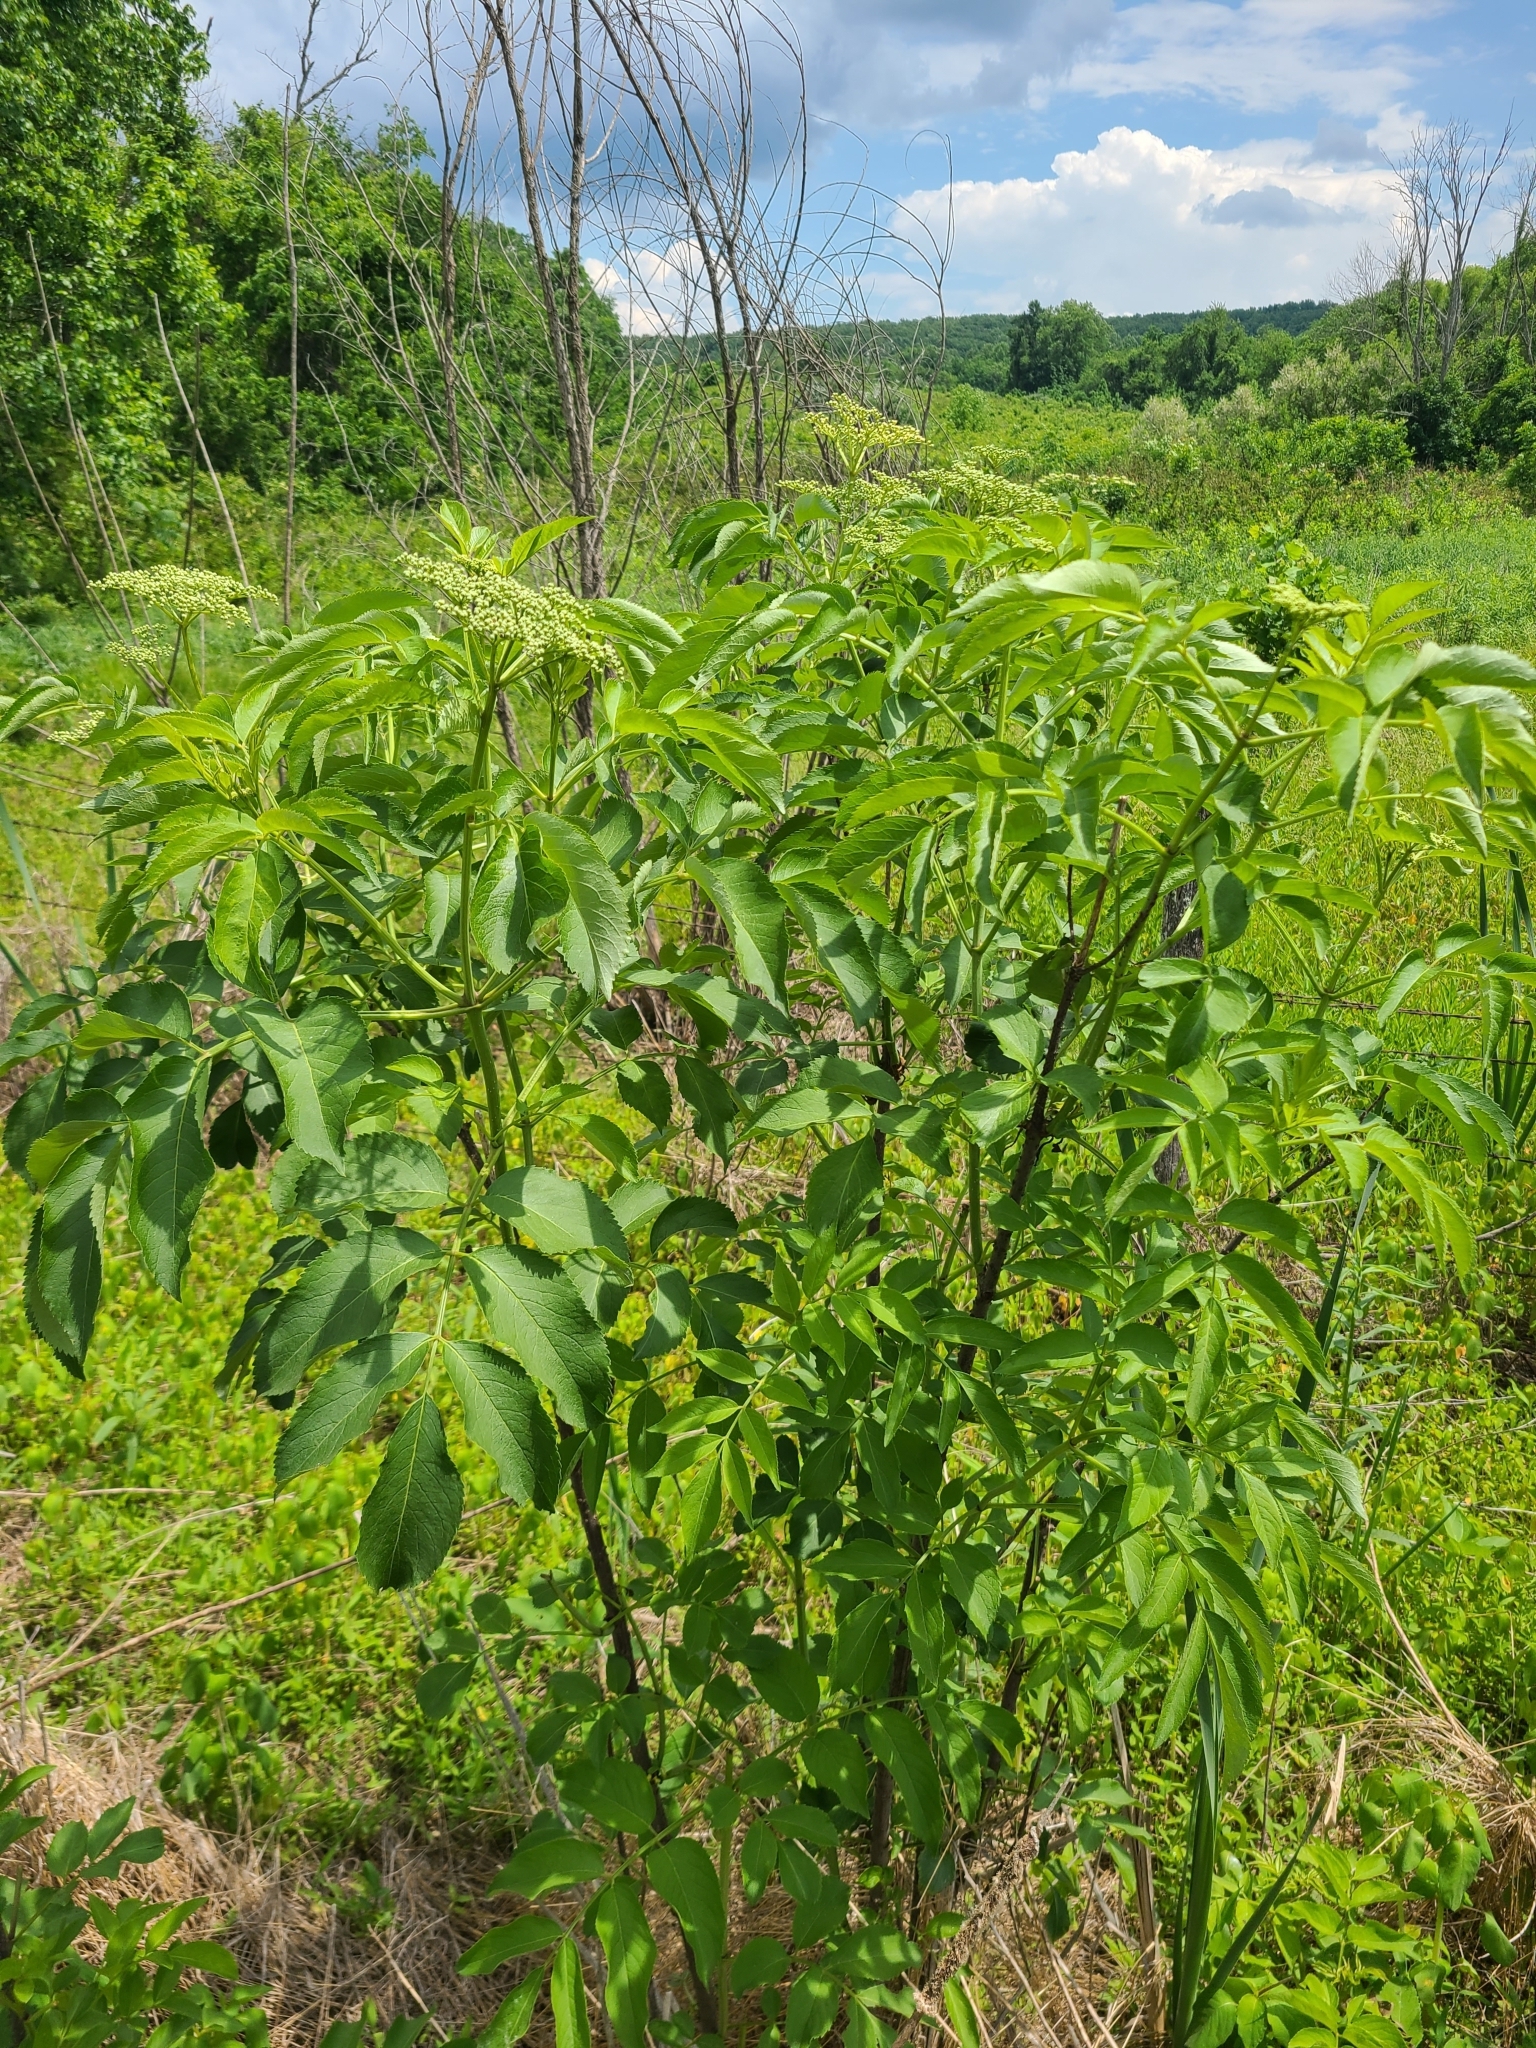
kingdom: Plantae
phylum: Tracheophyta
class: Magnoliopsida
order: Dipsacales
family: Viburnaceae
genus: Sambucus
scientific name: Sambucus canadensis
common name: American elder
